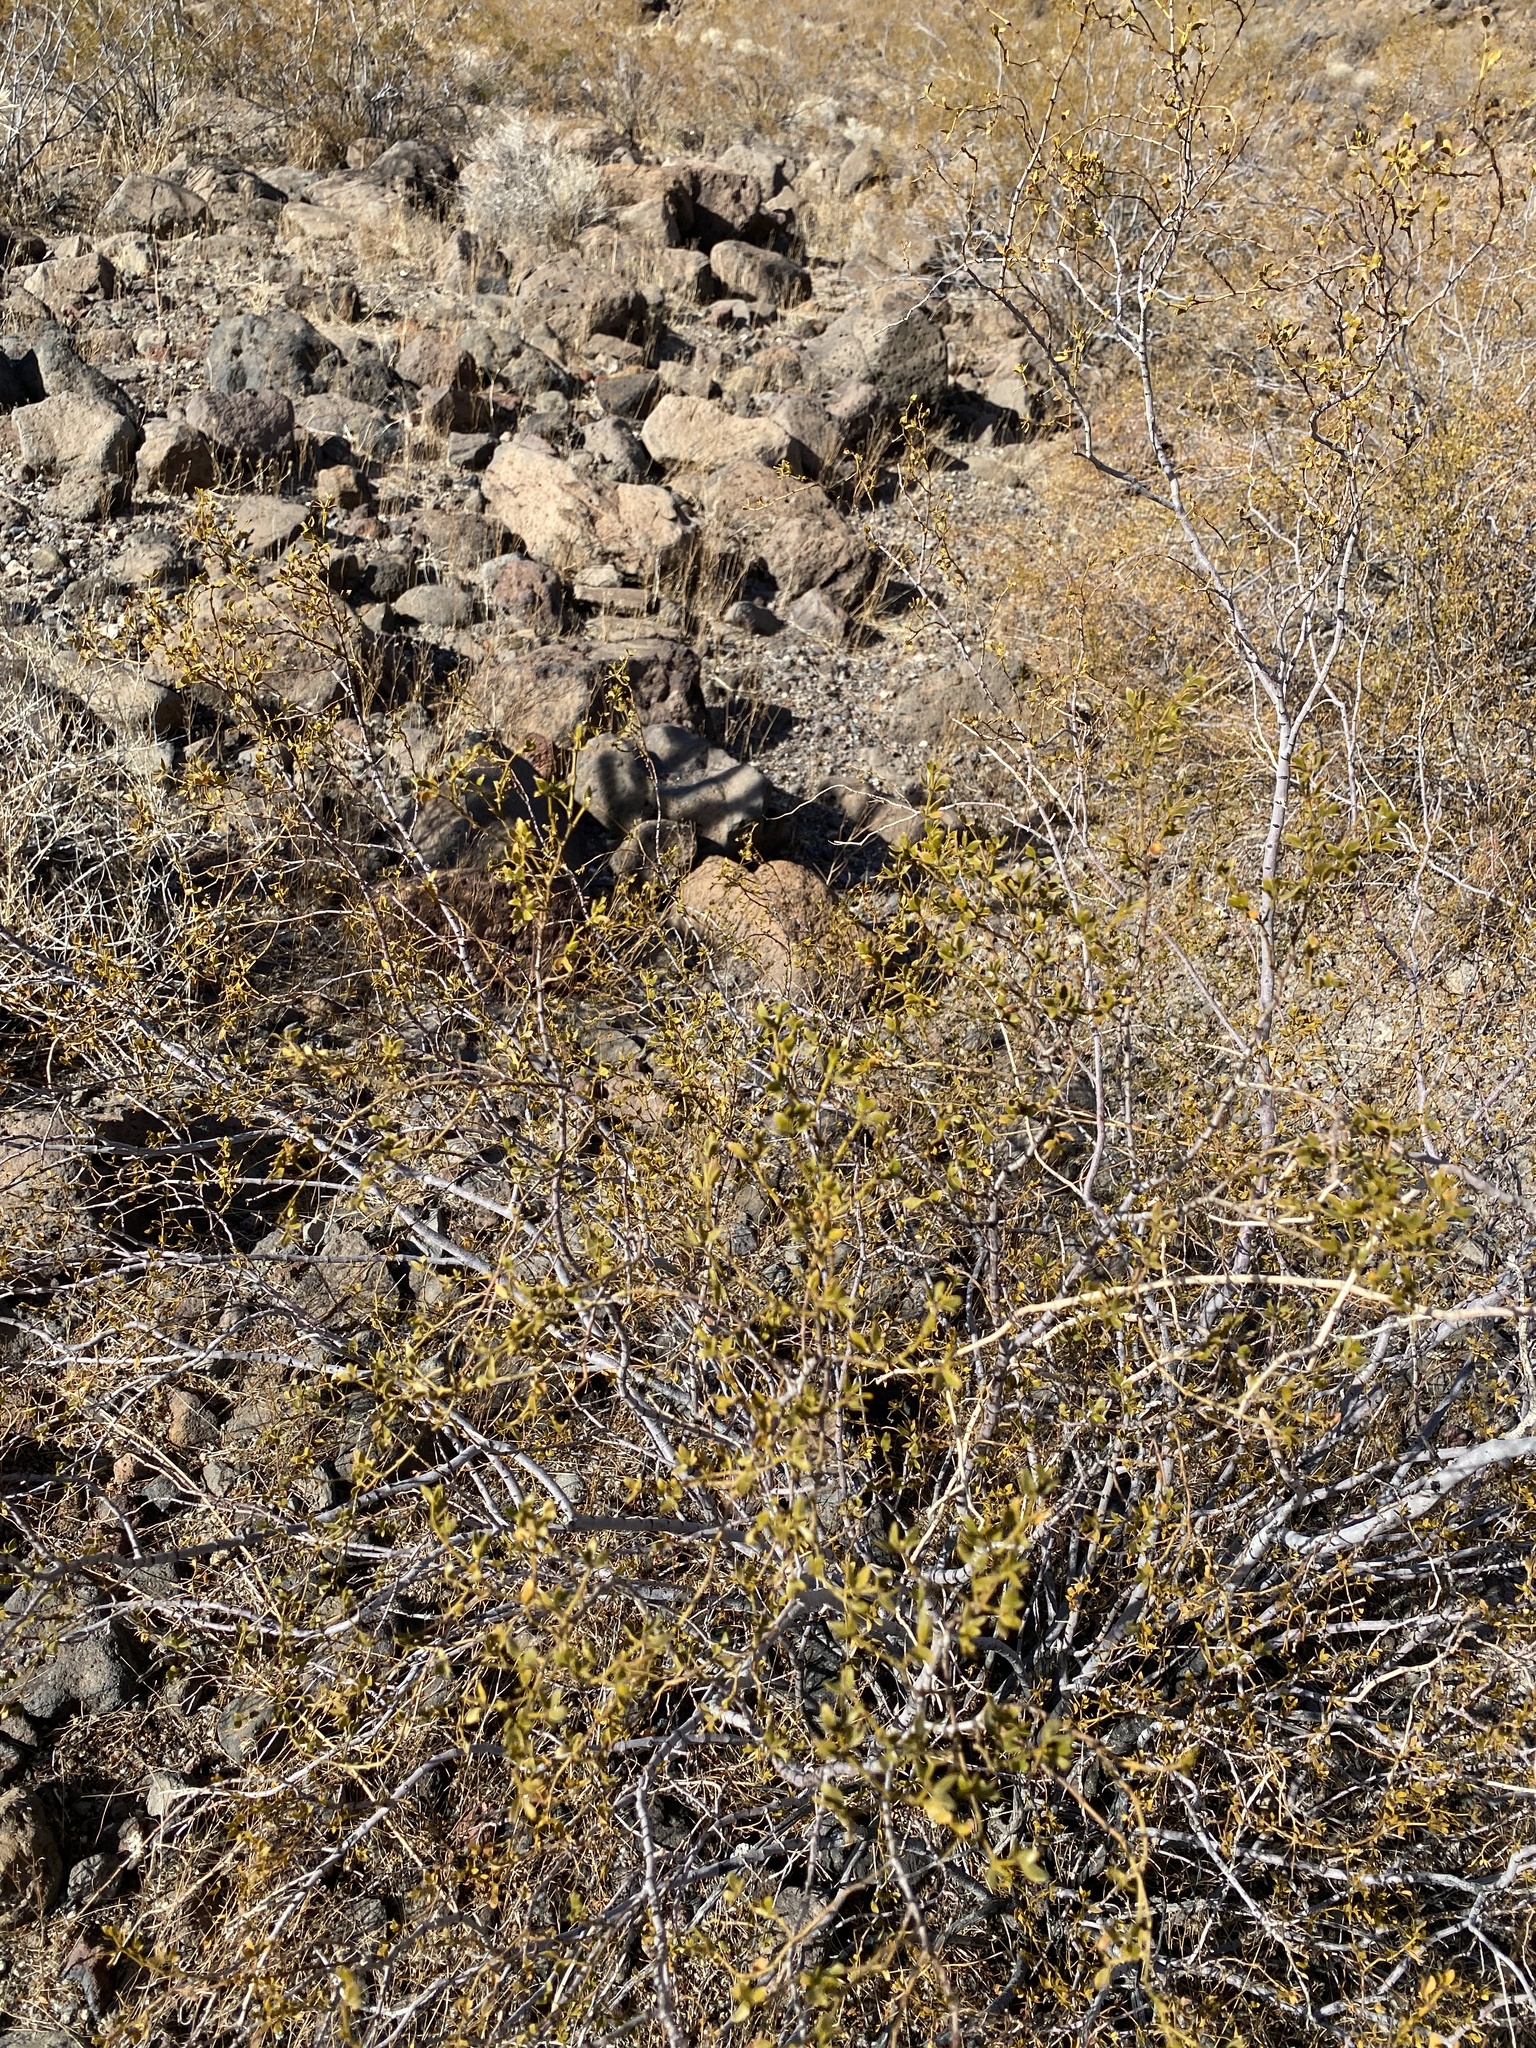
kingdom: Plantae
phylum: Tracheophyta
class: Magnoliopsida
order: Zygophyllales
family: Zygophyllaceae
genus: Larrea
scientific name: Larrea tridentata
